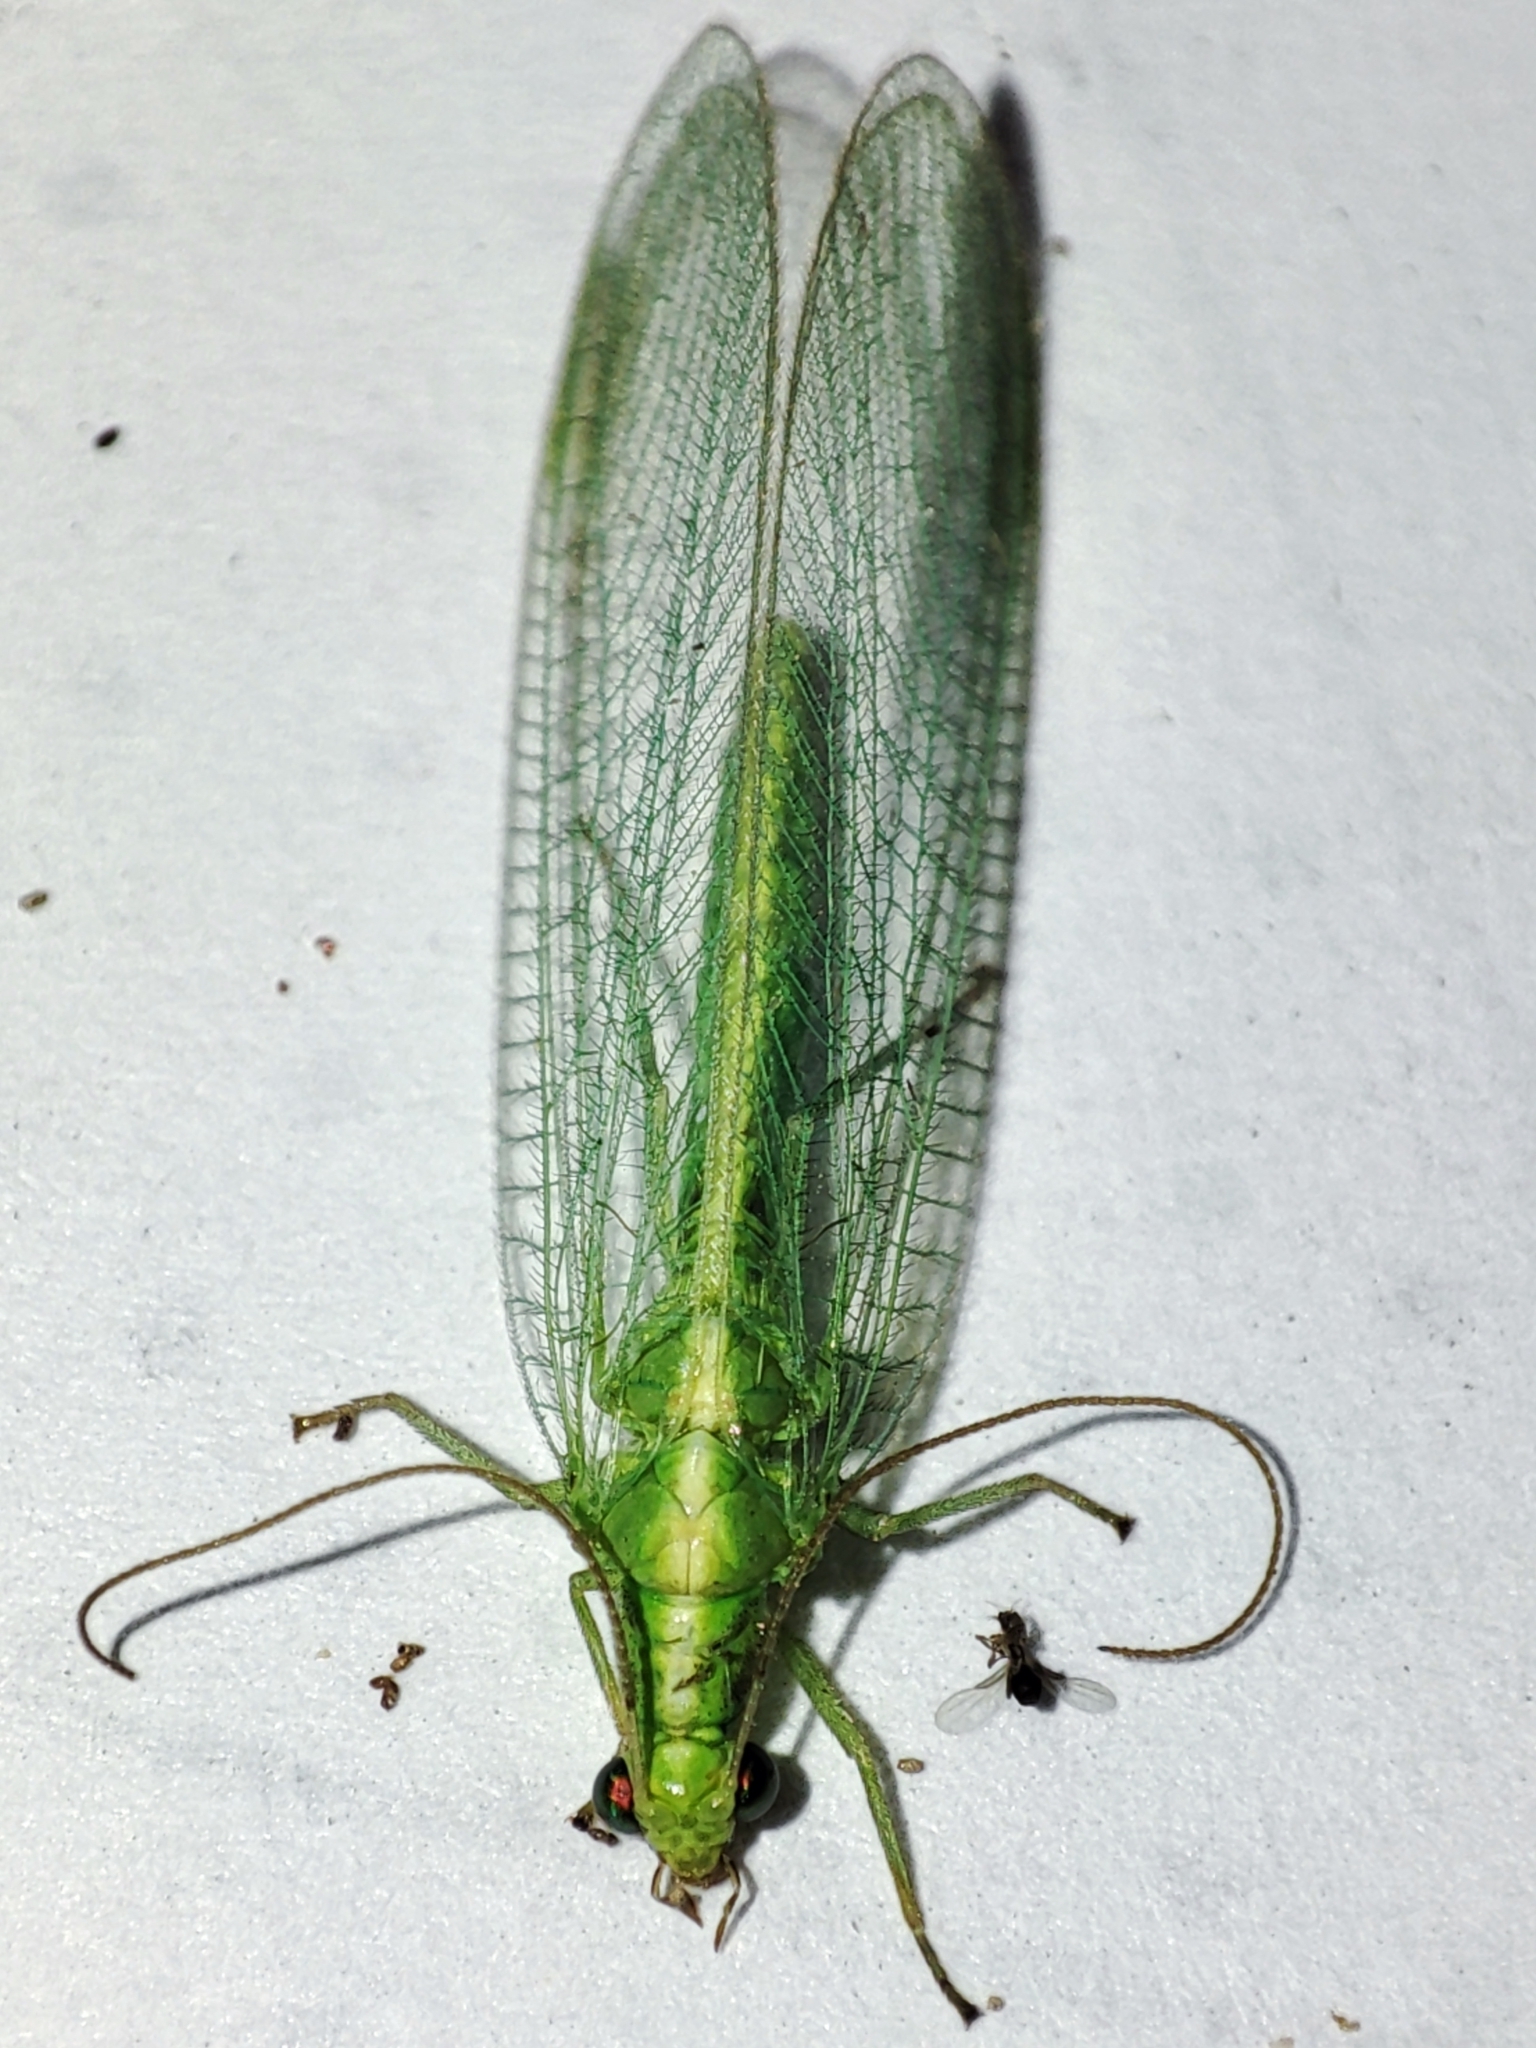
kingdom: Animalia
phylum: Arthropoda
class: Insecta
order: Neuroptera
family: Chrysopidae
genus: Chrysoperla
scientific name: Chrysoperla
